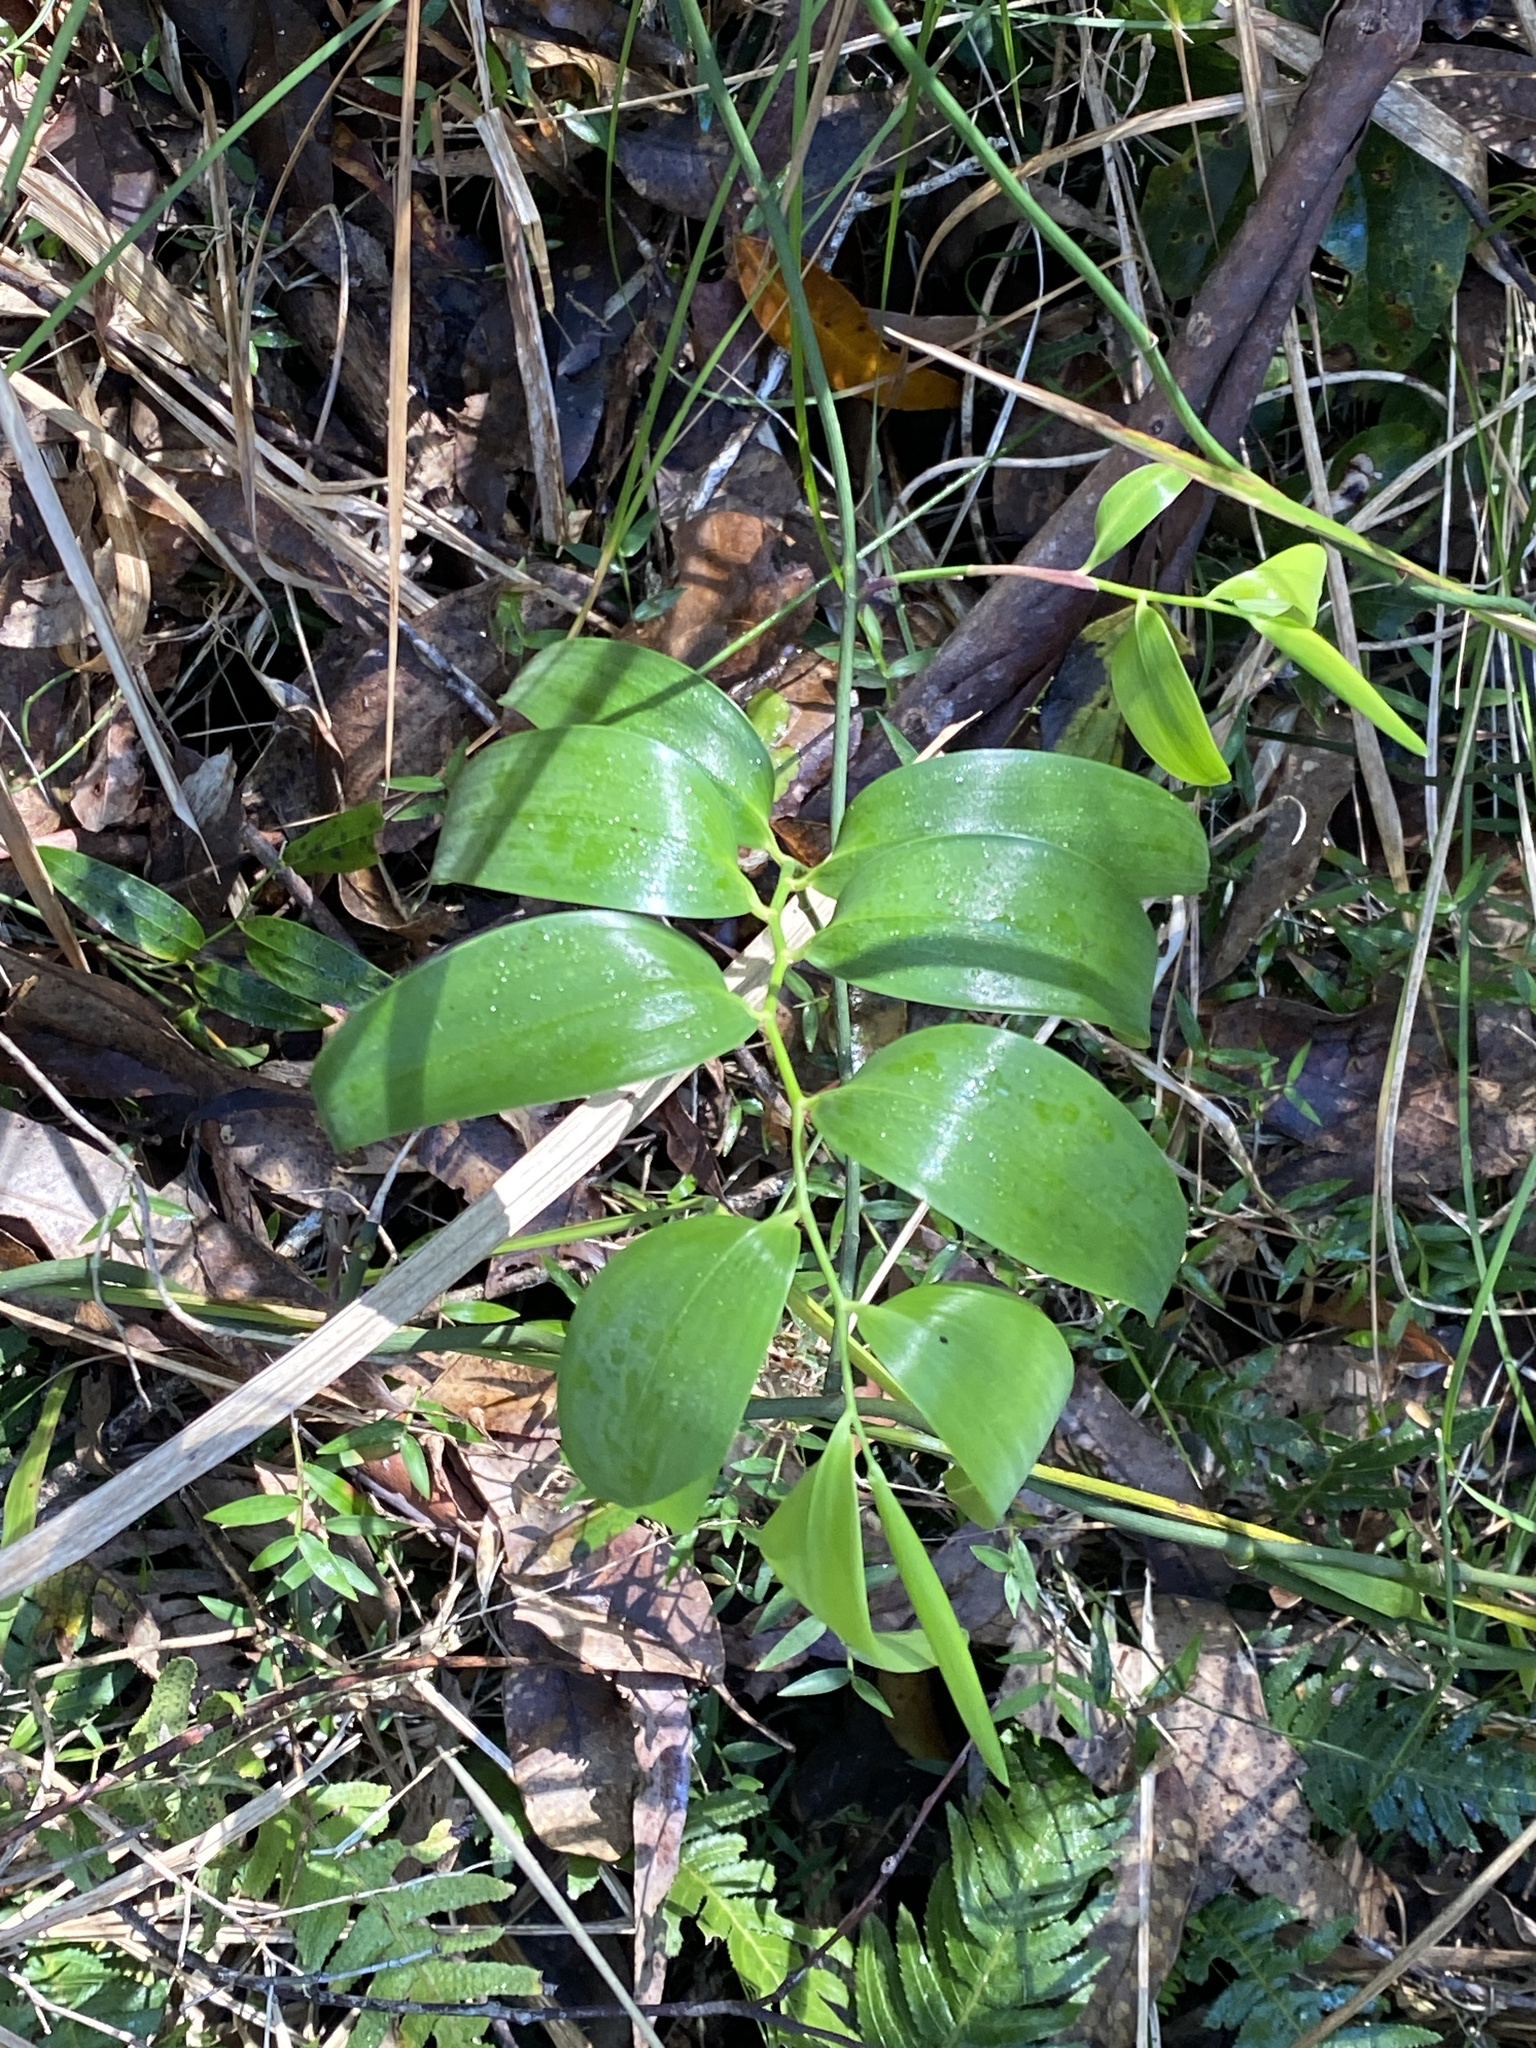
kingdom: Plantae
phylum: Tracheophyta
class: Liliopsida
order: Asparagales
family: Asphodelaceae
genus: Geitonoplesium
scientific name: Geitonoplesium cymosum
